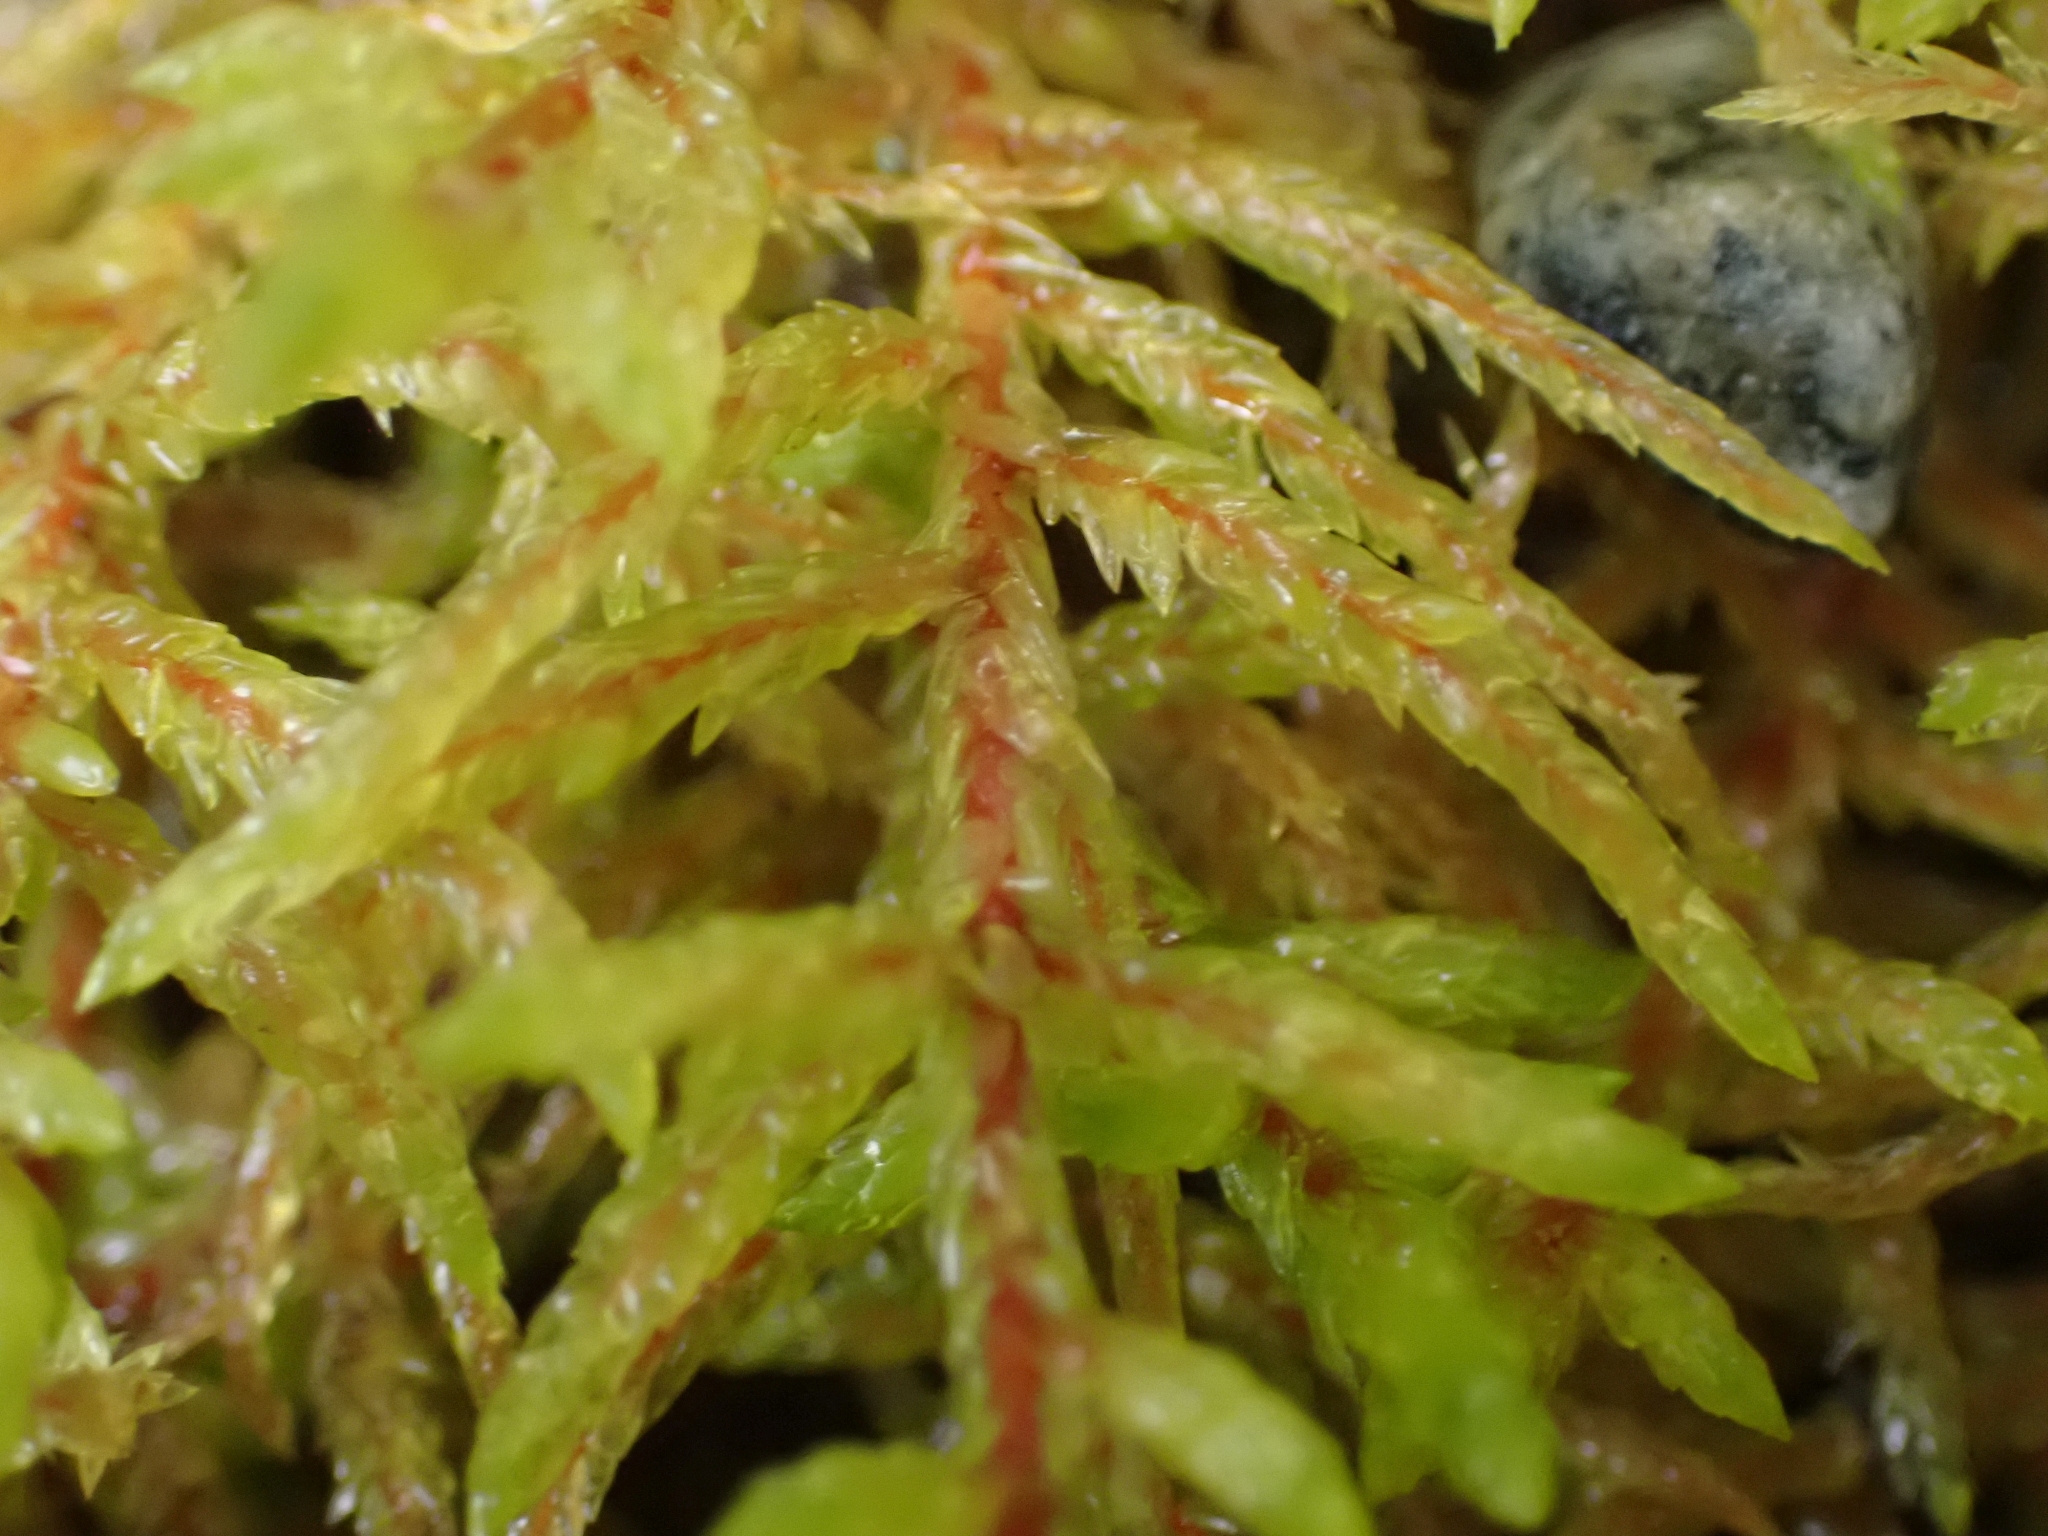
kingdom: Plantae
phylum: Bryophyta
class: Bryopsida
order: Hypnales
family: Hylocomiaceae
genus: Pleurozium
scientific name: Pleurozium schreberi
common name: Red-stemmed feather moss
